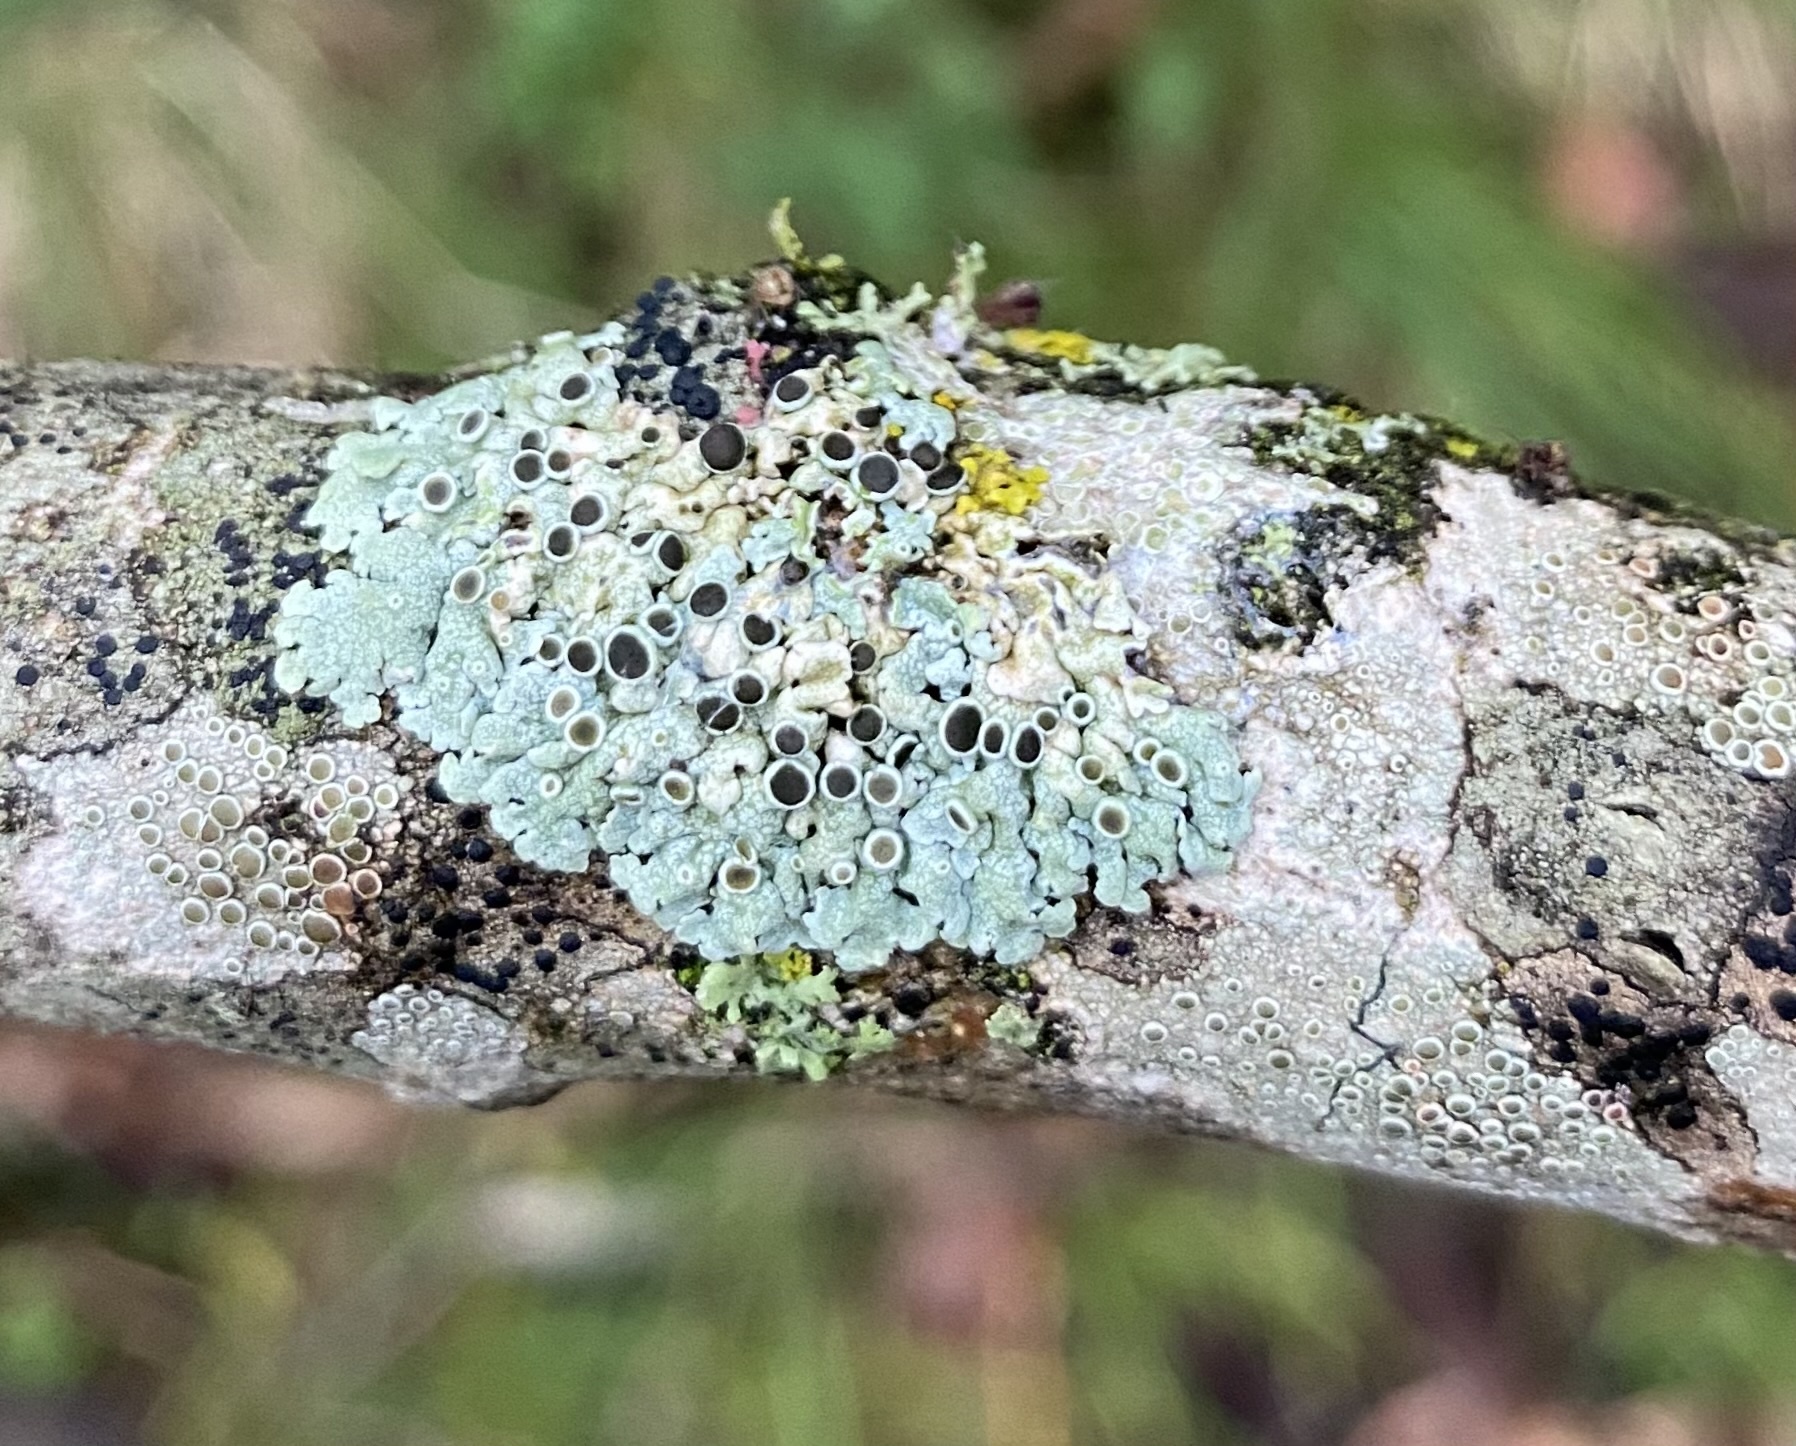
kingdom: Fungi
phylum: Ascomycota
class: Sordariomycetes
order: Hypocreales
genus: Illosporiopsis
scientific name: Illosporiopsis christiansenii
